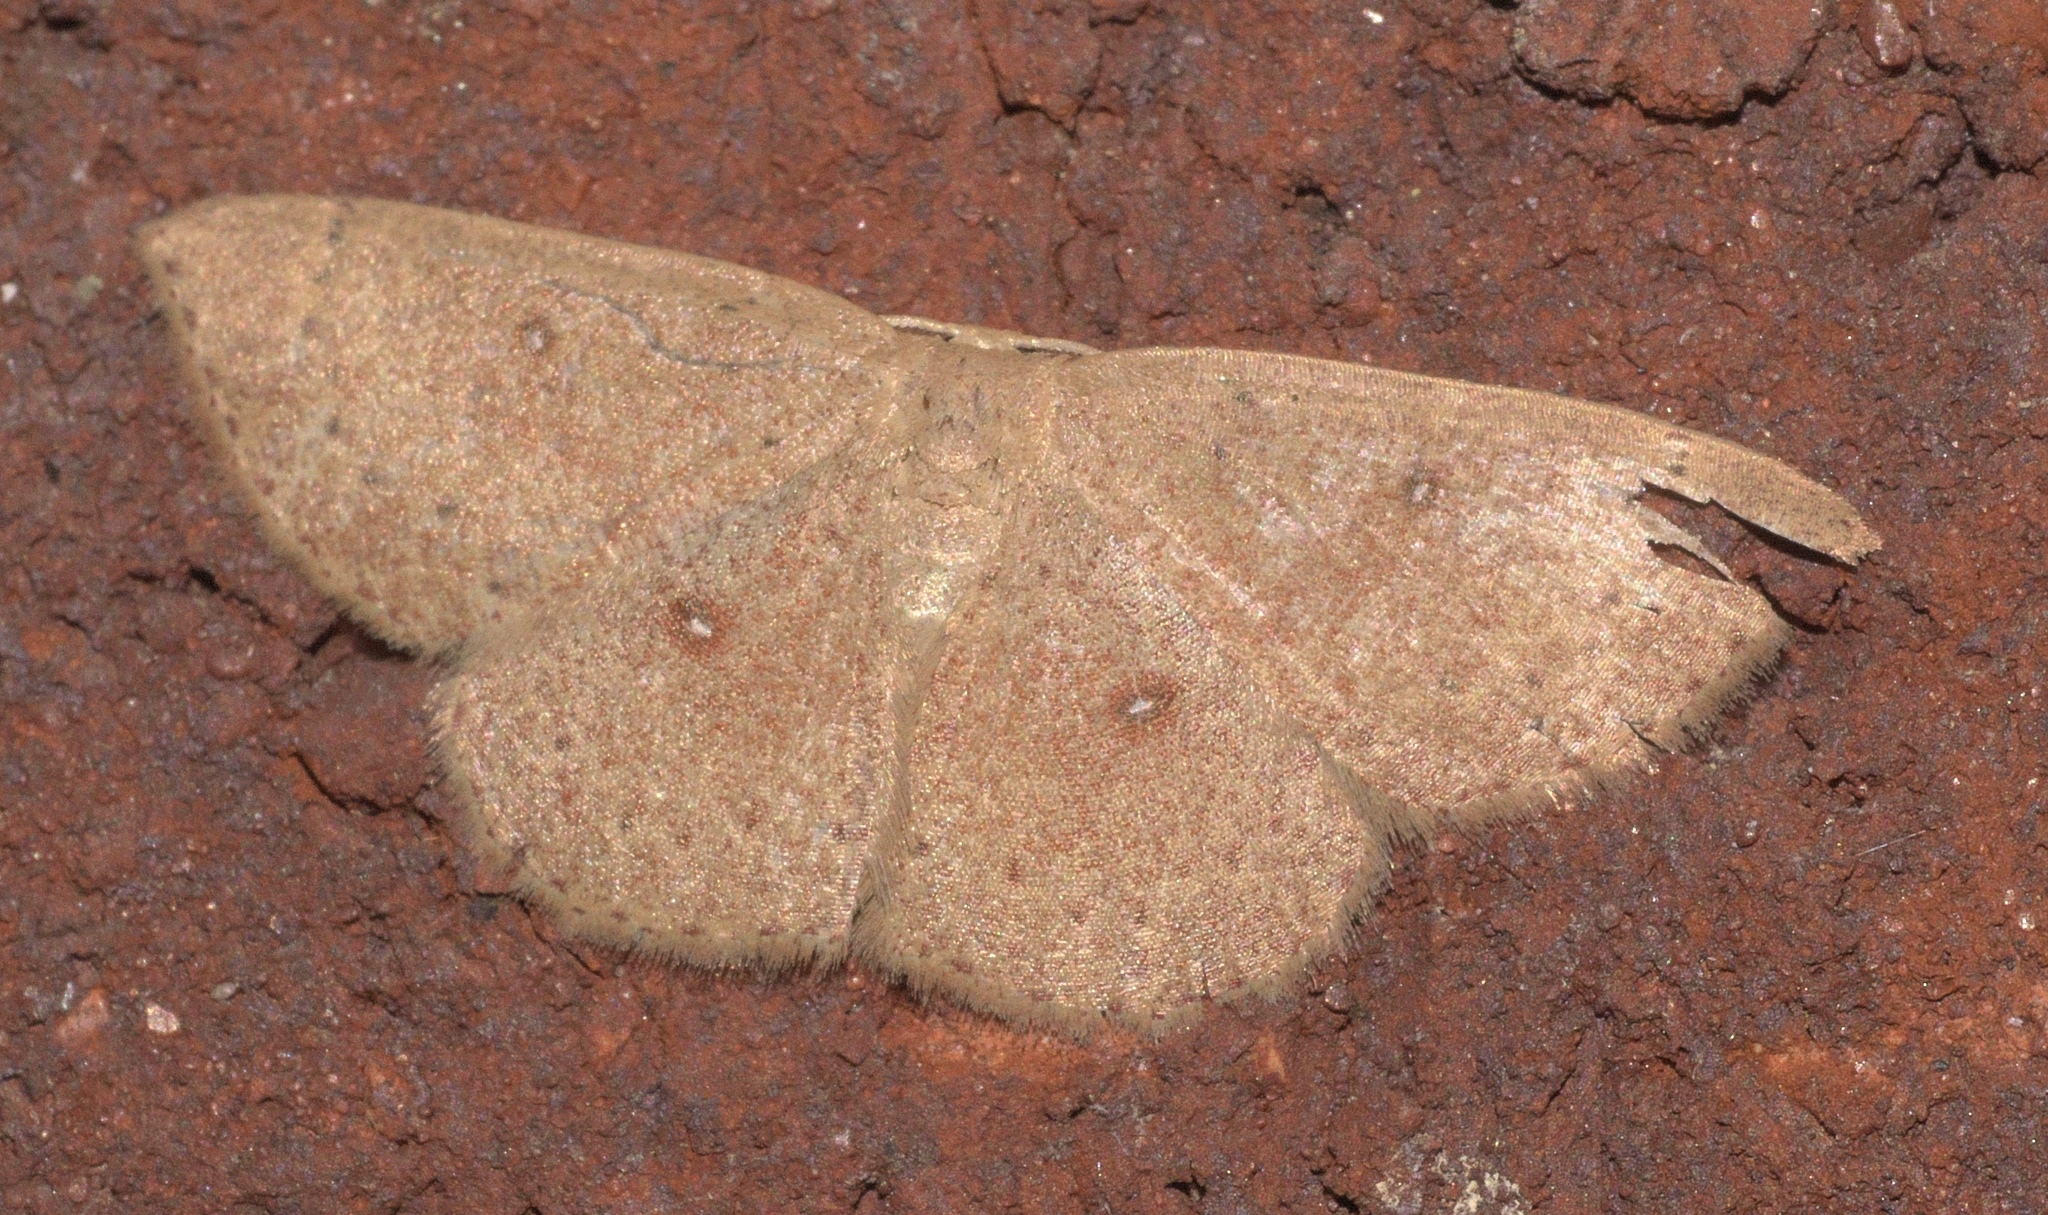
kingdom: Animalia
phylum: Arthropoda
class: Insecta
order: Lepidoptera
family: Geometridae
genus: Cyclophora
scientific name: Cyclophora packardi
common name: Packard's wave
